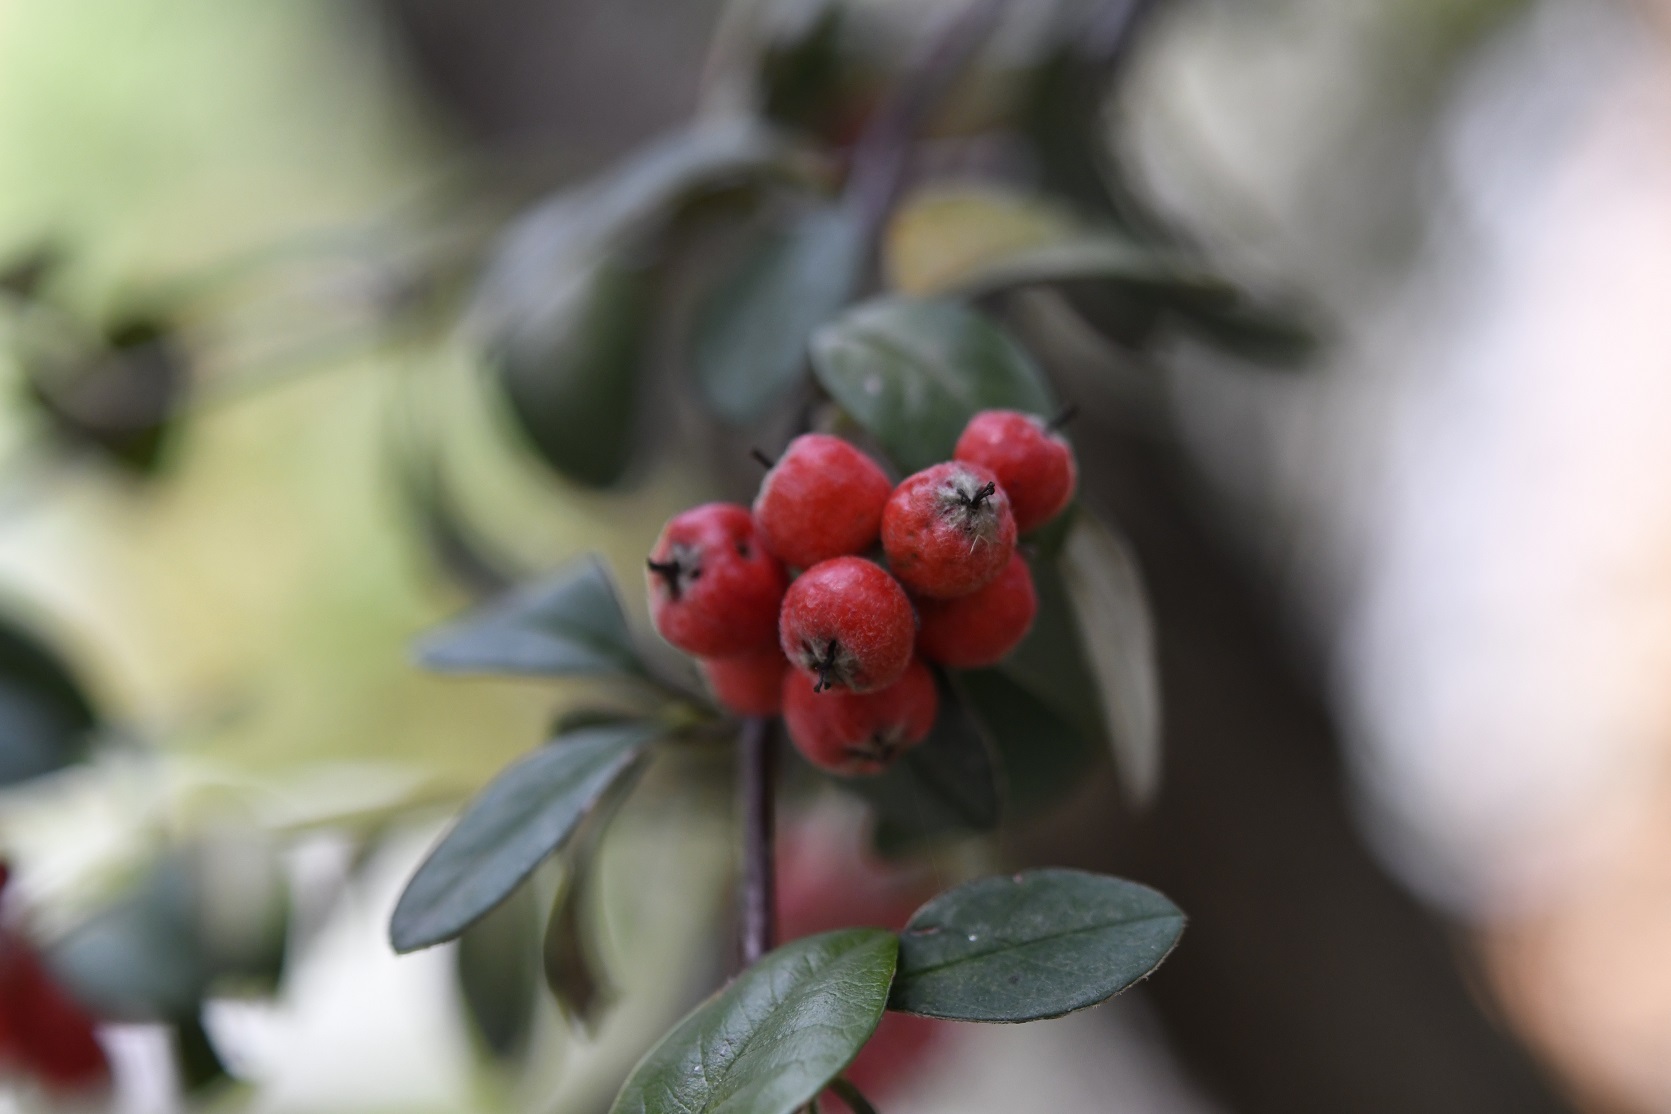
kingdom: Plantae
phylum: Tracheophyta
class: Magnoliopsida
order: Rosales
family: Rosaceae
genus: Cotoneaster
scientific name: Cotoneaster pannosus
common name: Silverleaf cotoneaster
